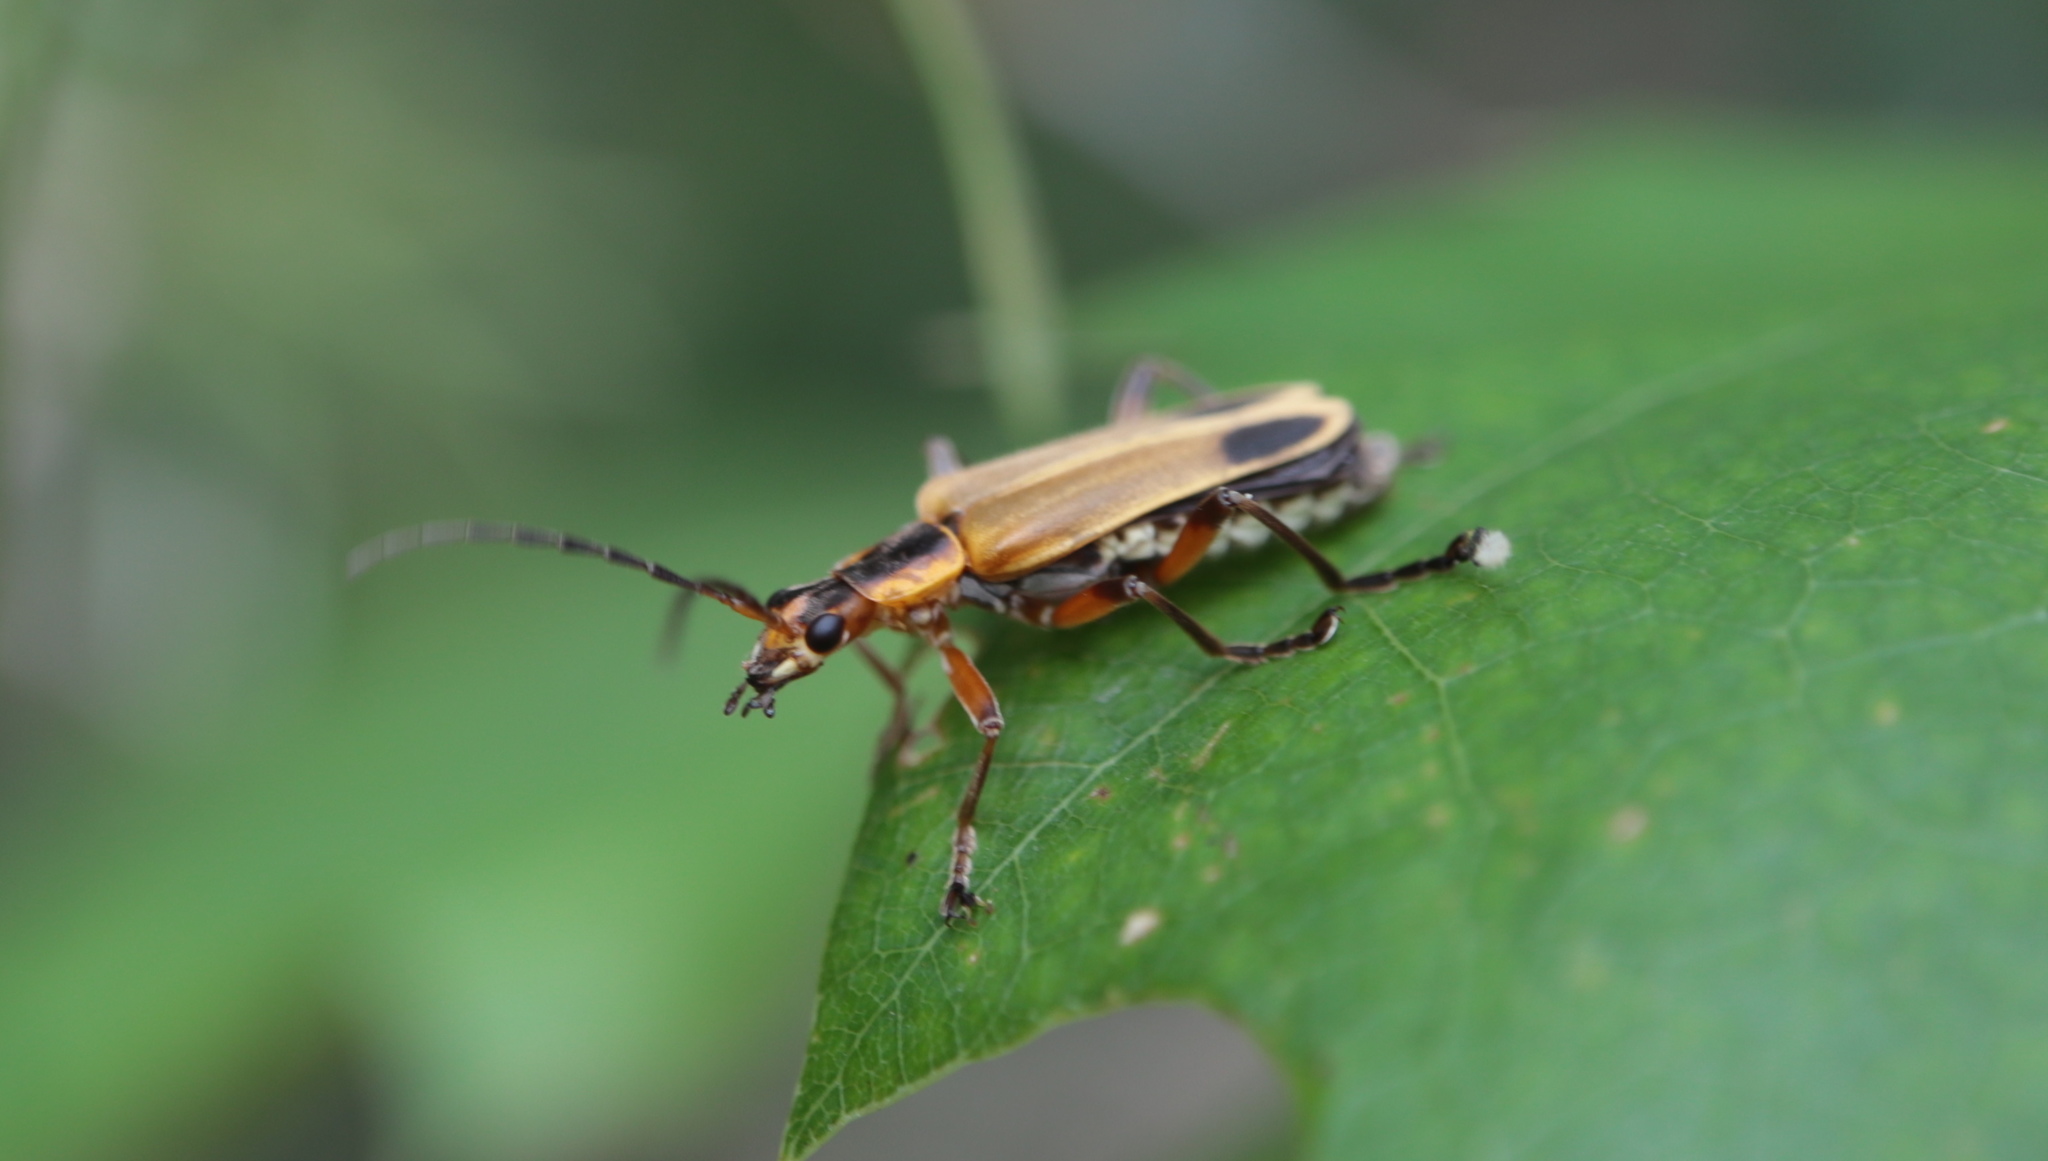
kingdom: Animalia
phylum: Arthropoda
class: Insecta
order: Coleoptera
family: Cantharidae
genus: Chauliognathus
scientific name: Chauliognathus marginatus
